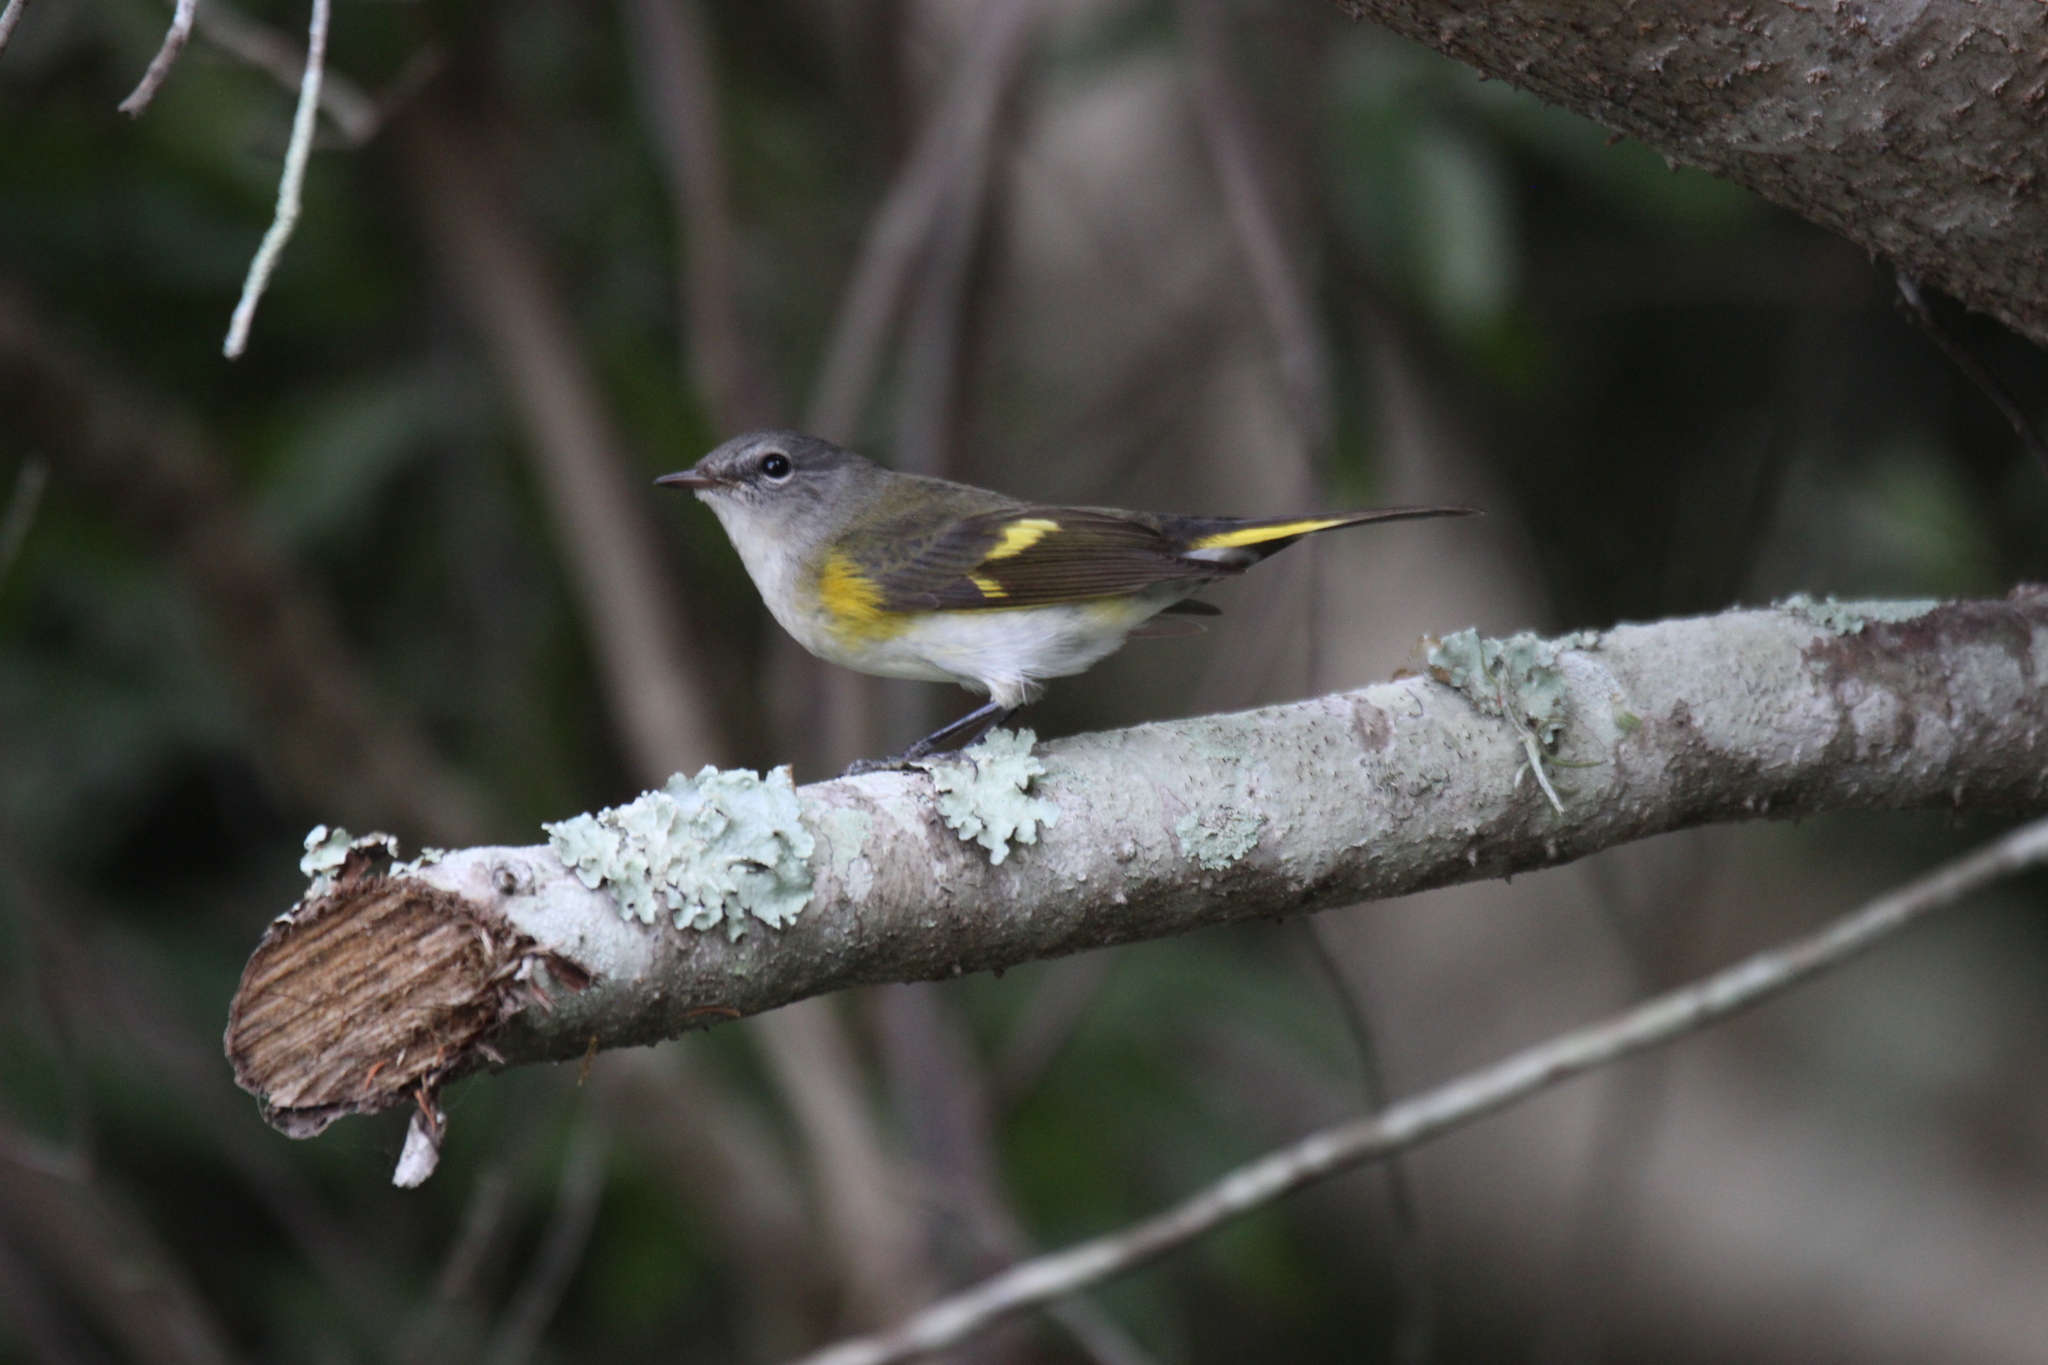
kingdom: Animalia
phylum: Chordata
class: Aves
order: Passeriformes
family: Parulidae
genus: Setophaga
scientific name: Setophaga ruticilla
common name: American redstart
